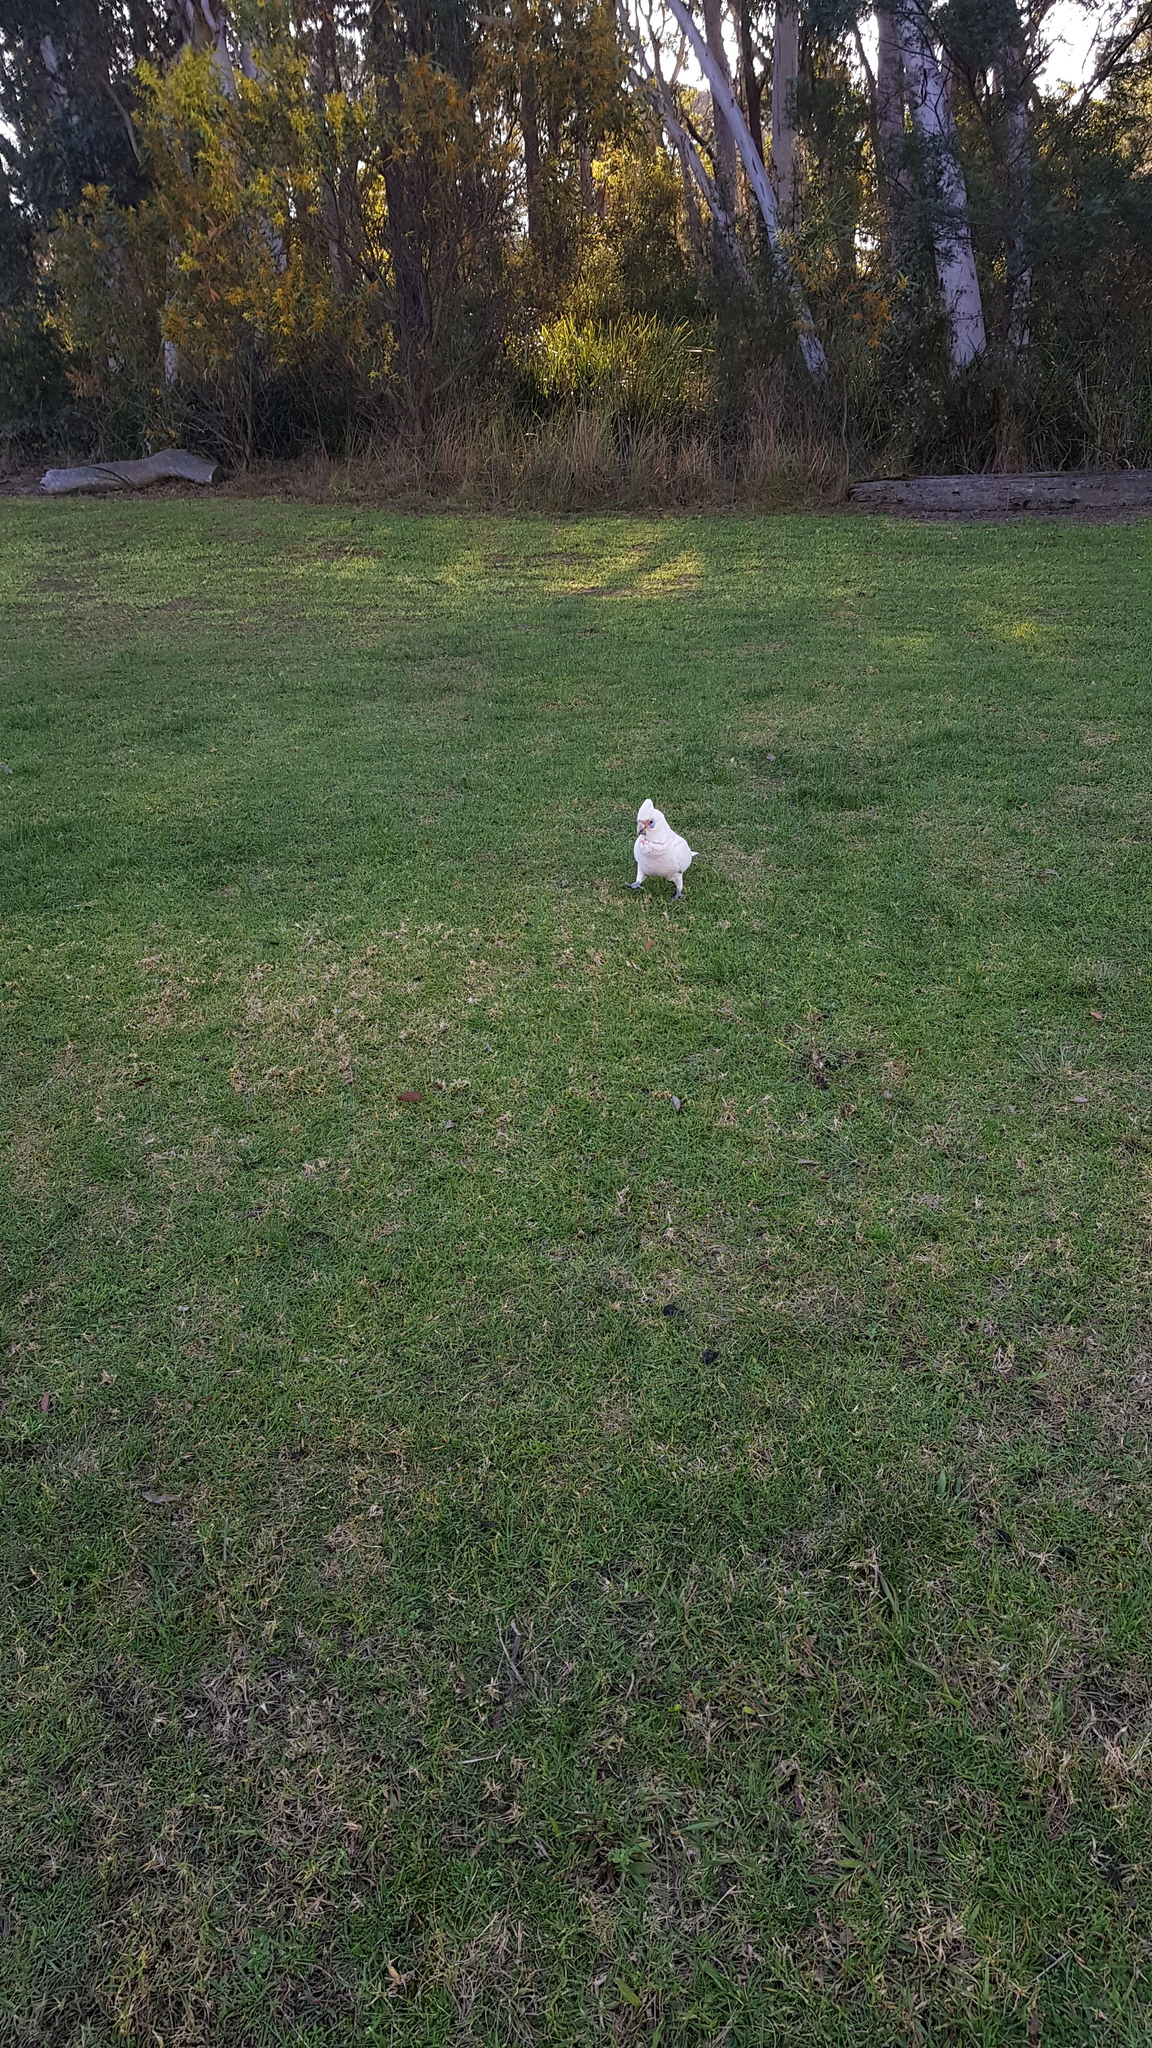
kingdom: Animalia
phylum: Chordata
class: Aves
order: Psittaciformes
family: Psittacidae
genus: Cacatua
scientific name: Cacatua sanguinea
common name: Little corella
